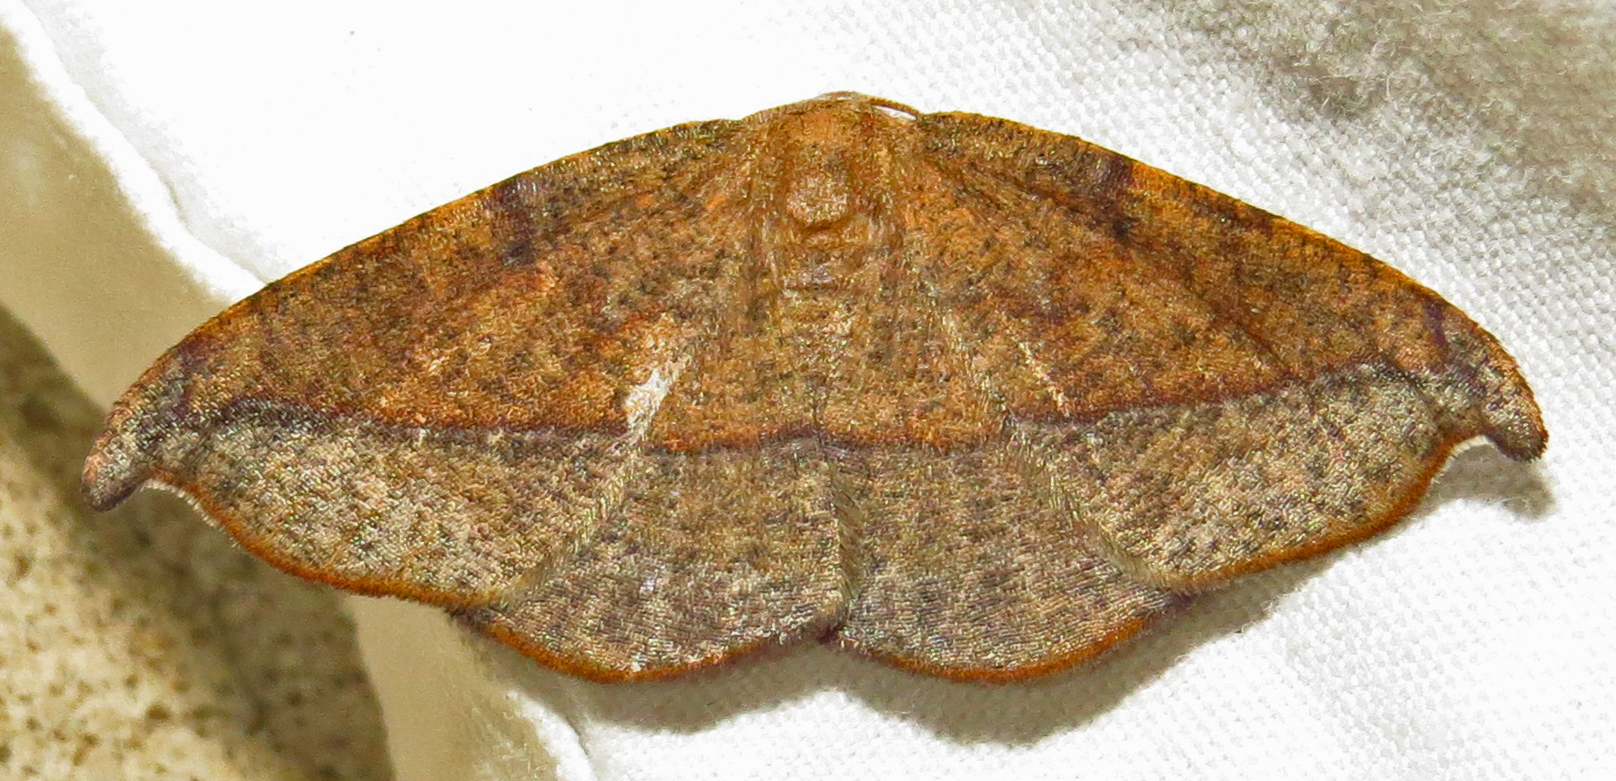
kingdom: Animalia
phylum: Arthropoda
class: Insecta
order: Lepidoptera
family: Geometridae
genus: Patalene
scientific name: Patalene olyzonaria
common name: Juniper geometer moth
